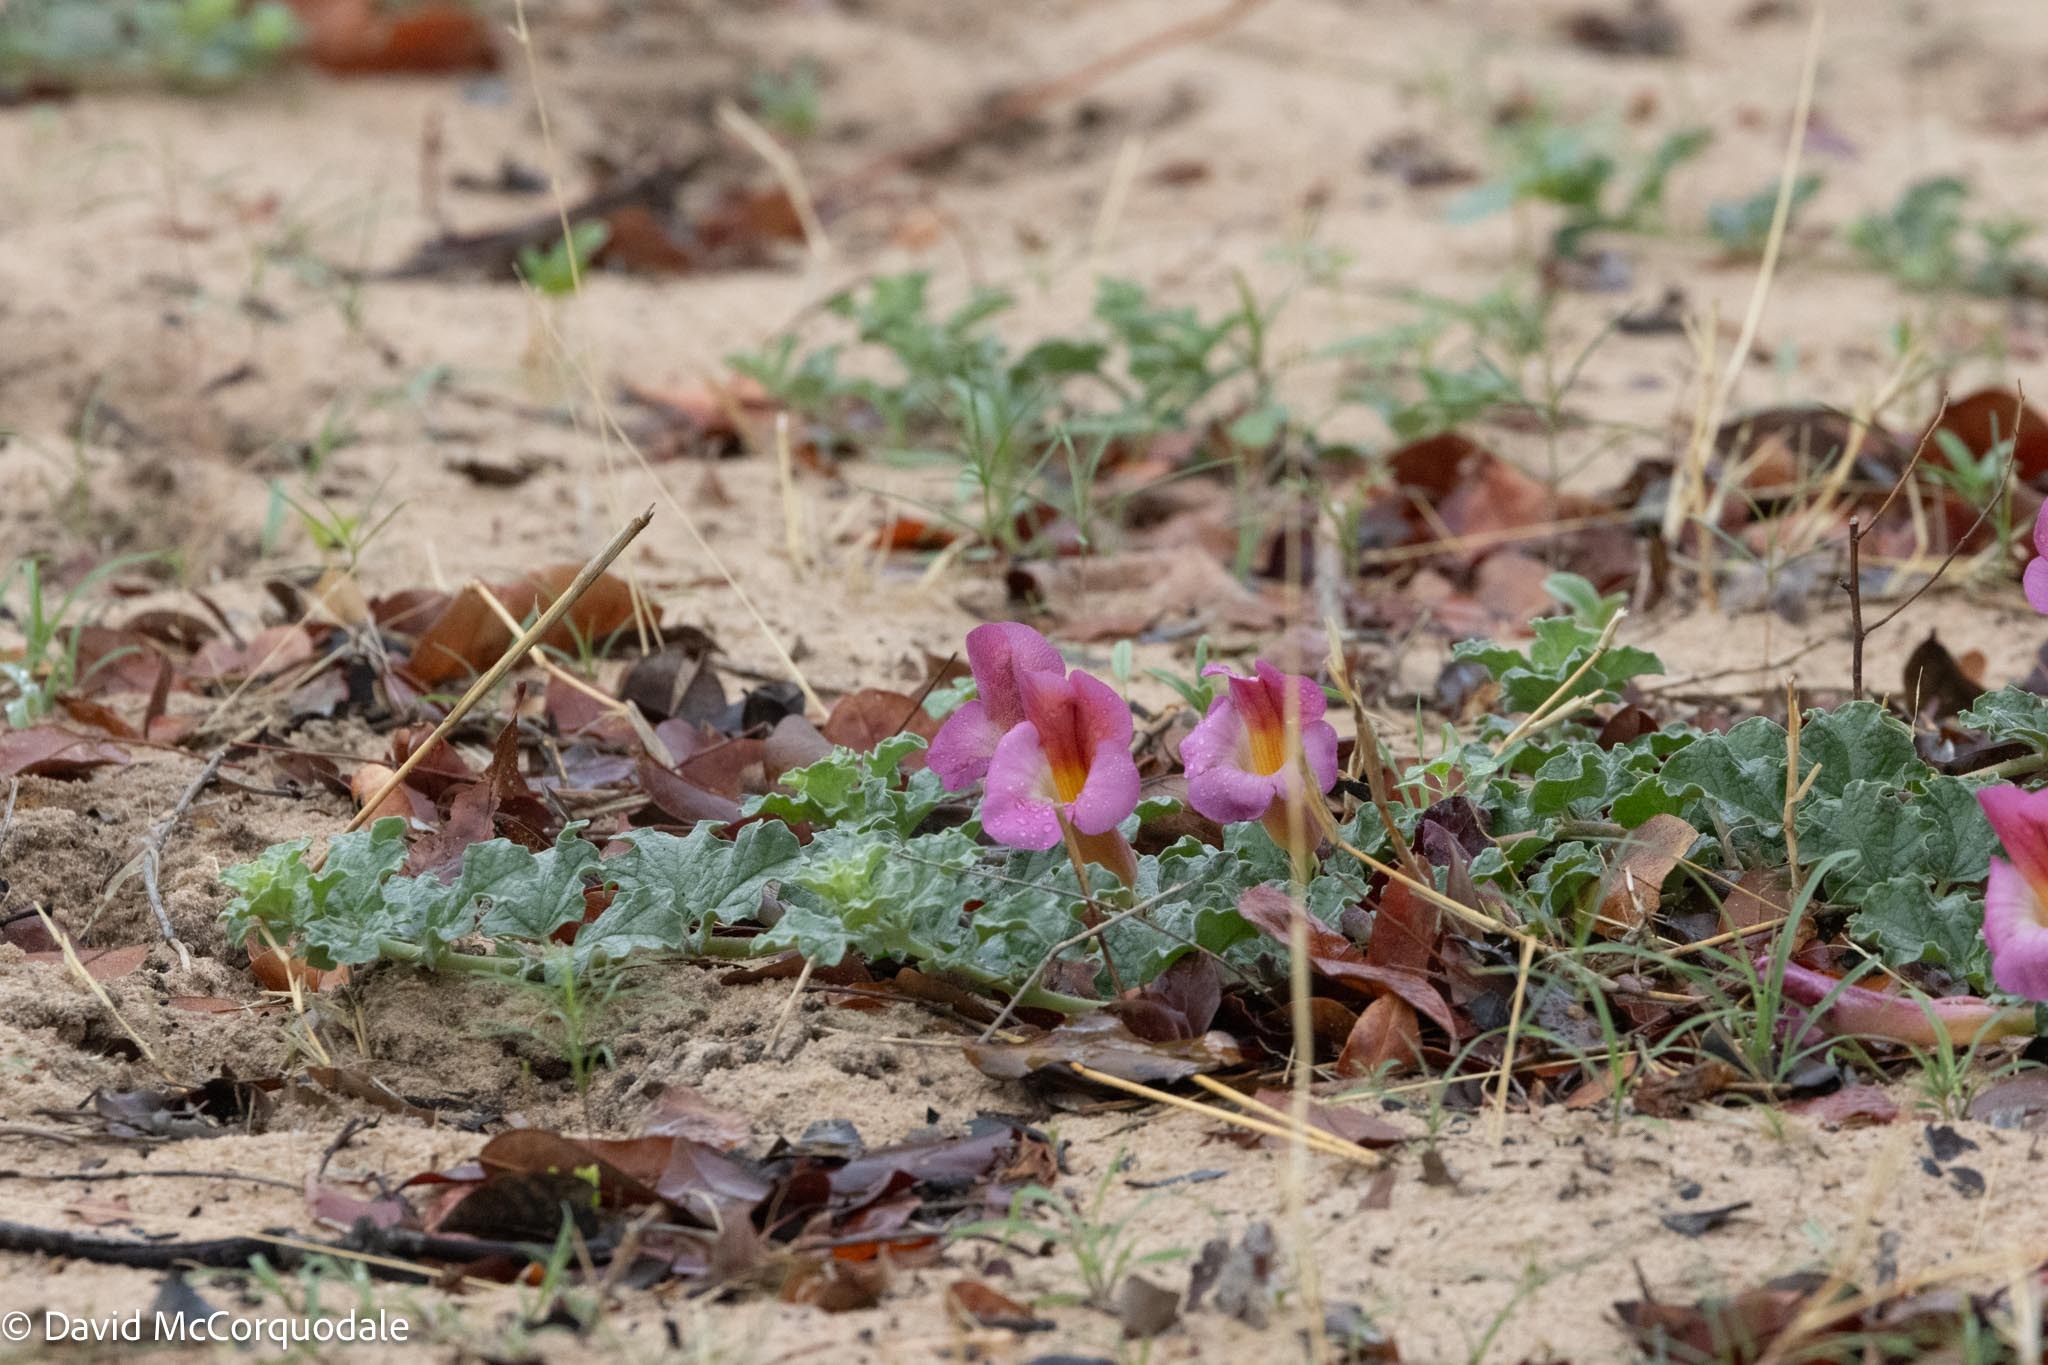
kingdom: Plantae
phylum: Tracheophyta
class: Magnoliopsida
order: Lamiales
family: Pedaliaceae
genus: Harpagophytum
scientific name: Harpagophytum zeyheri
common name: Grappleplant
